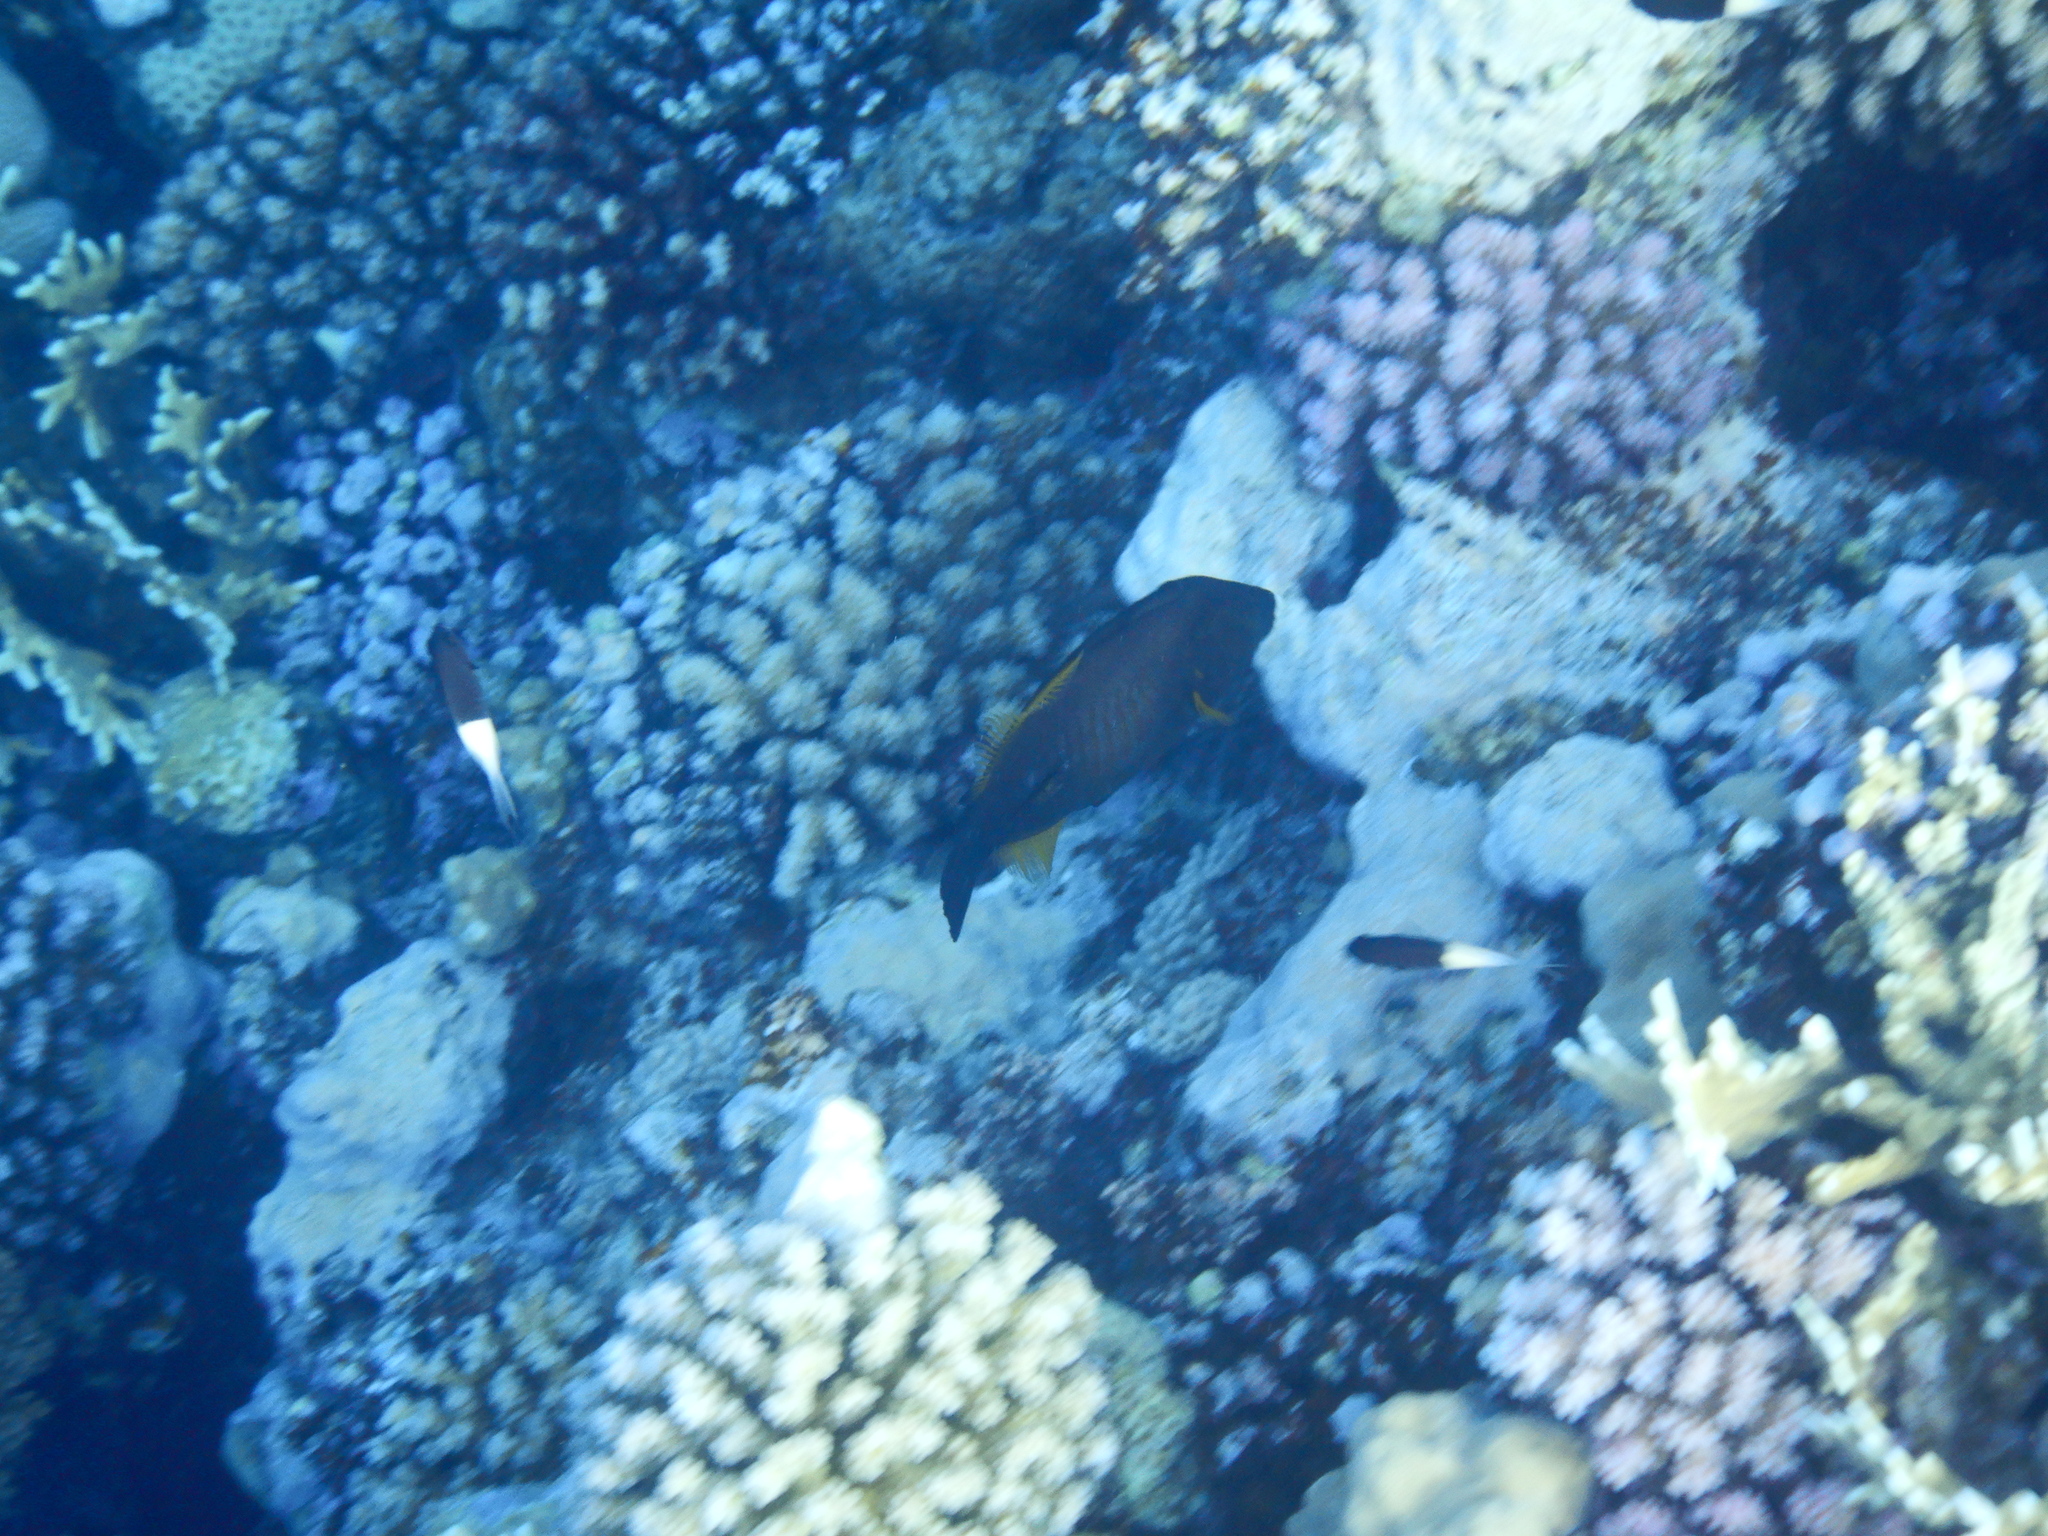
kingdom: Animalia
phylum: Chordata
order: Tetraodontiformes
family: Monacanthidae
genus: Amanses
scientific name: Amanses scopas
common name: Broom filefish
